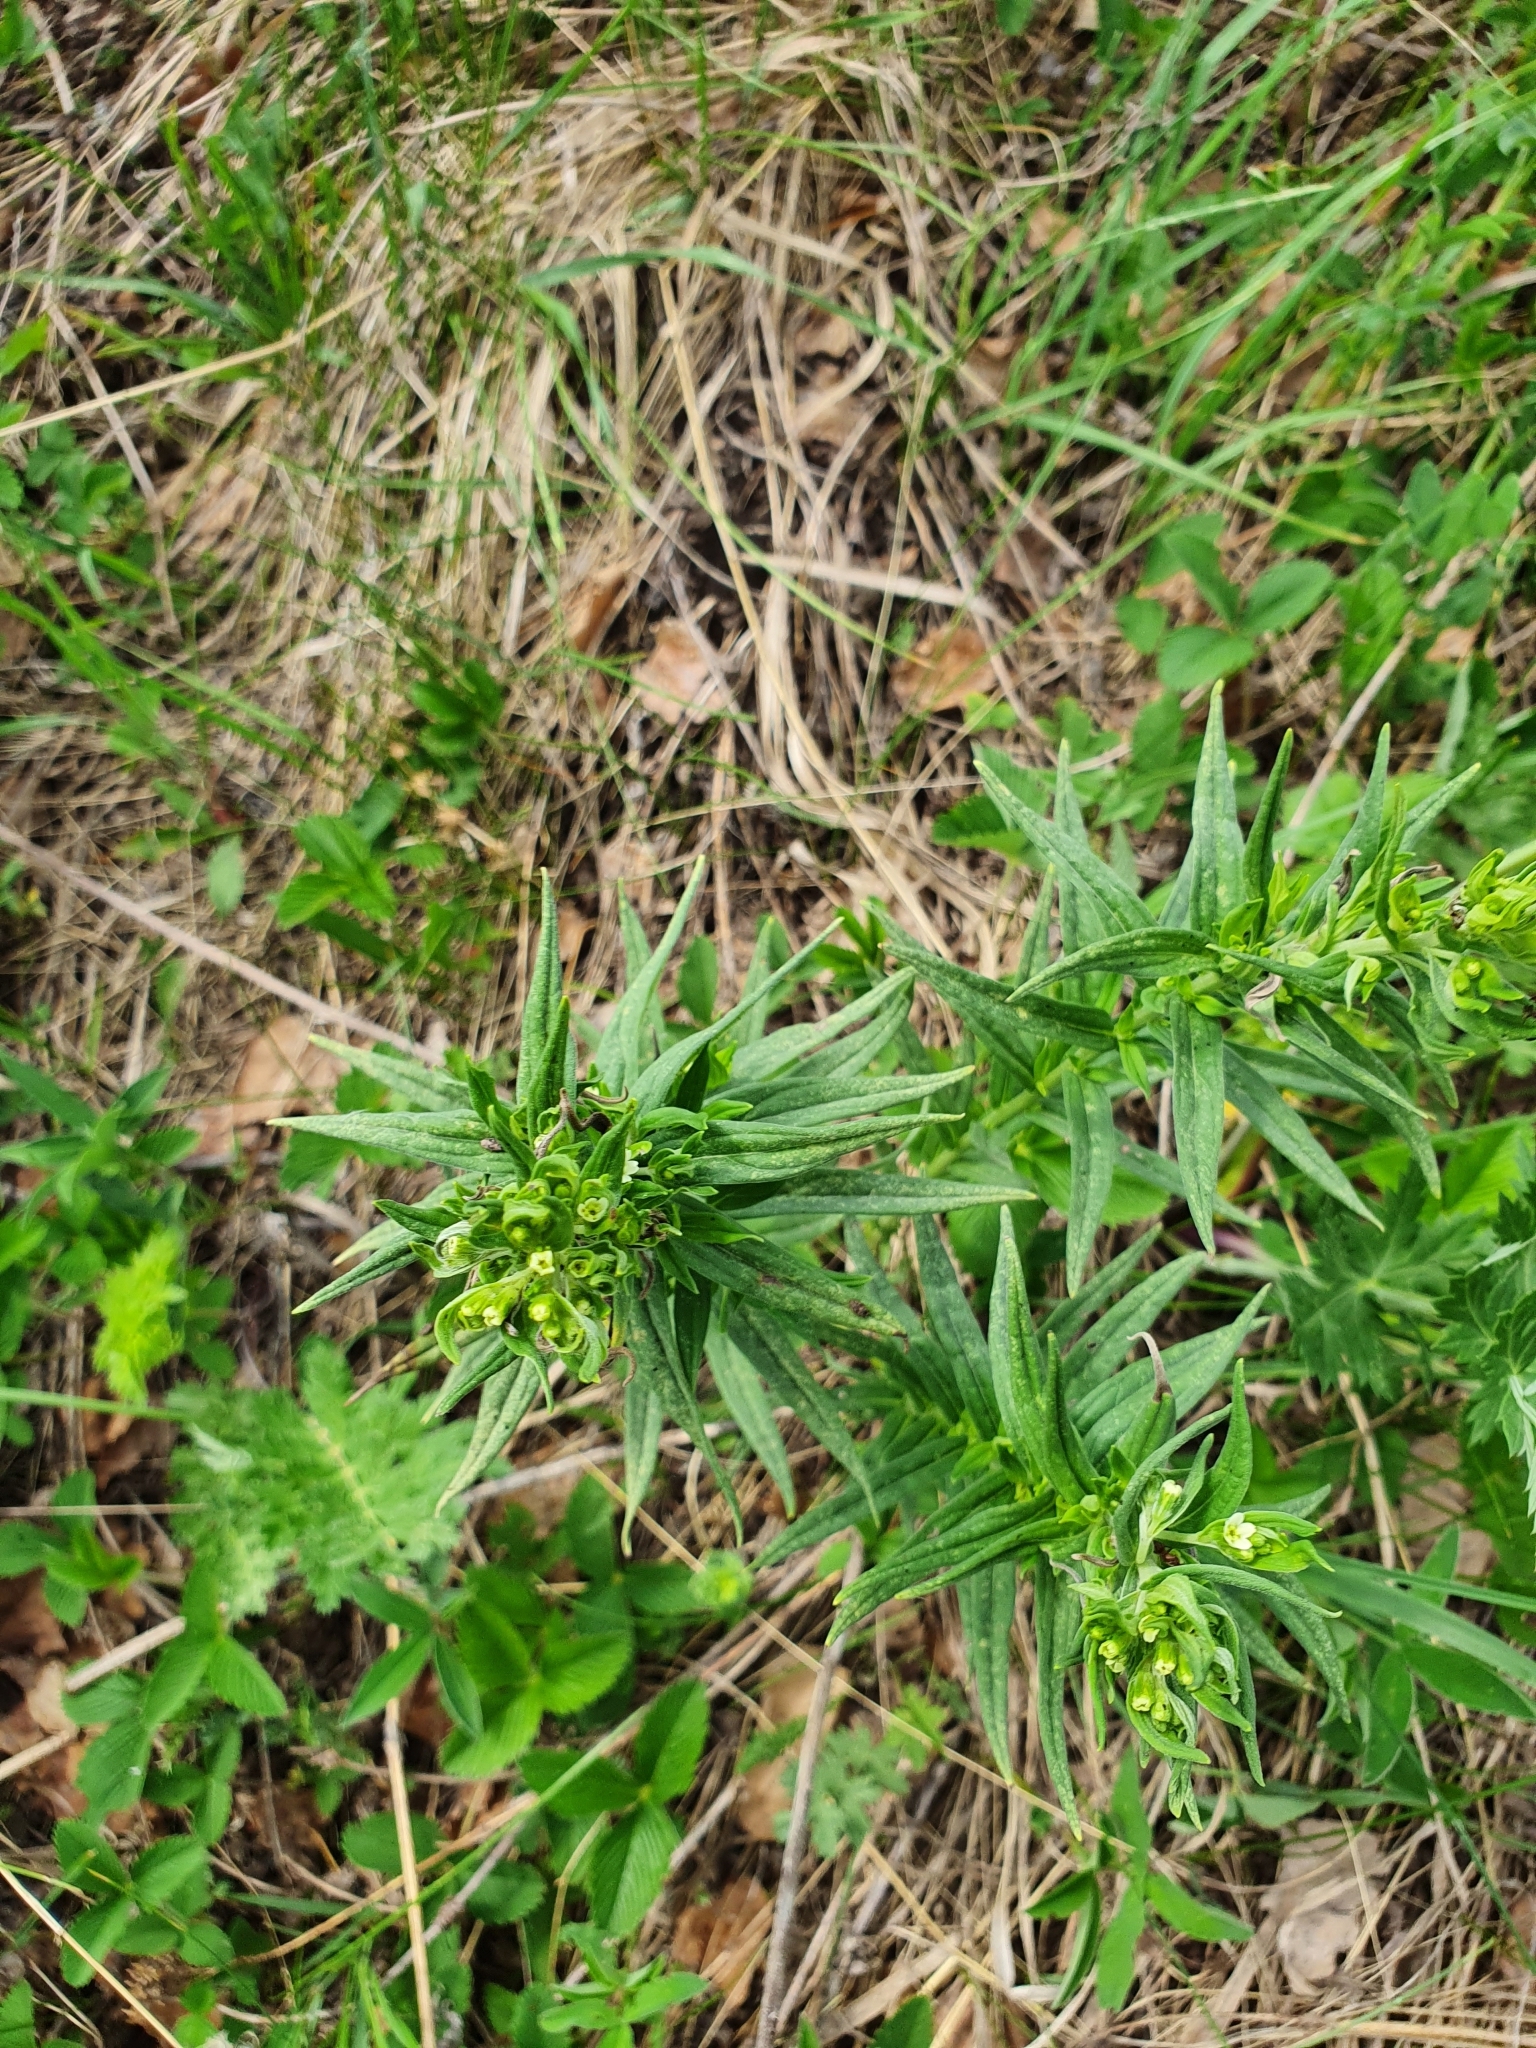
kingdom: Plantae
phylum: Tracheophyta
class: Magnoliopsida
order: Boraginales
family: Boraginaceae
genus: Lithospermum
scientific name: Lithospermum officinale
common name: Common gromwell
